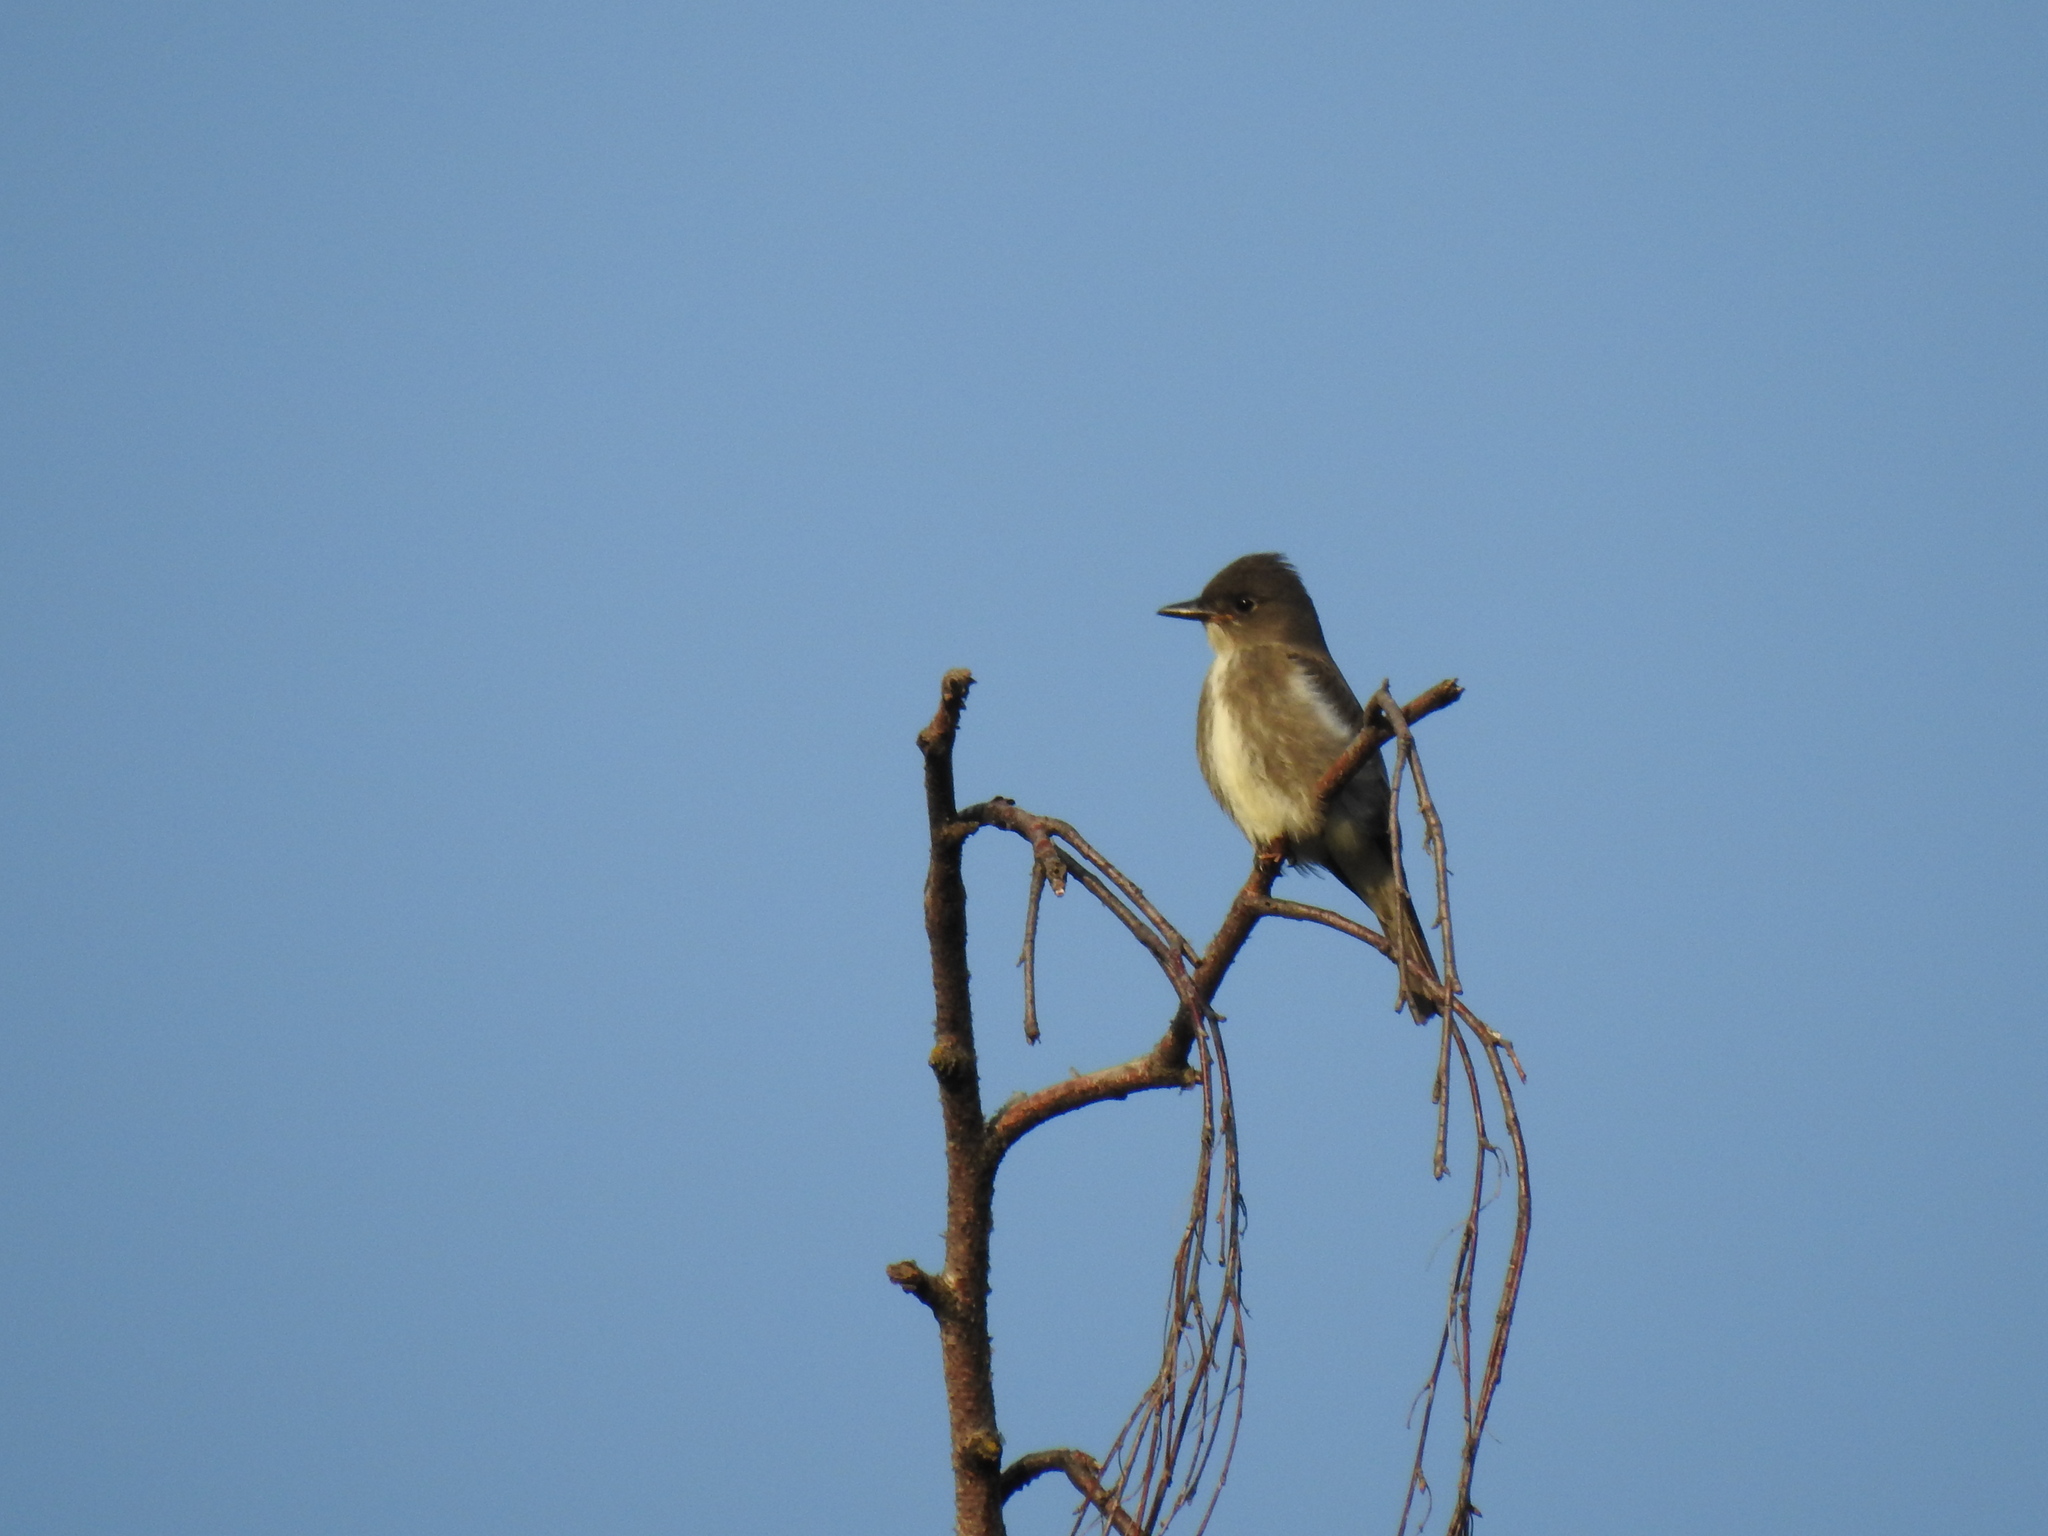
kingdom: Animalia
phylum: Chordata
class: Aves
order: Passeriformes
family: Tyrannidae
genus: Contopus
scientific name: Contopus cooperi
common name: Olive-sided flycatcher
